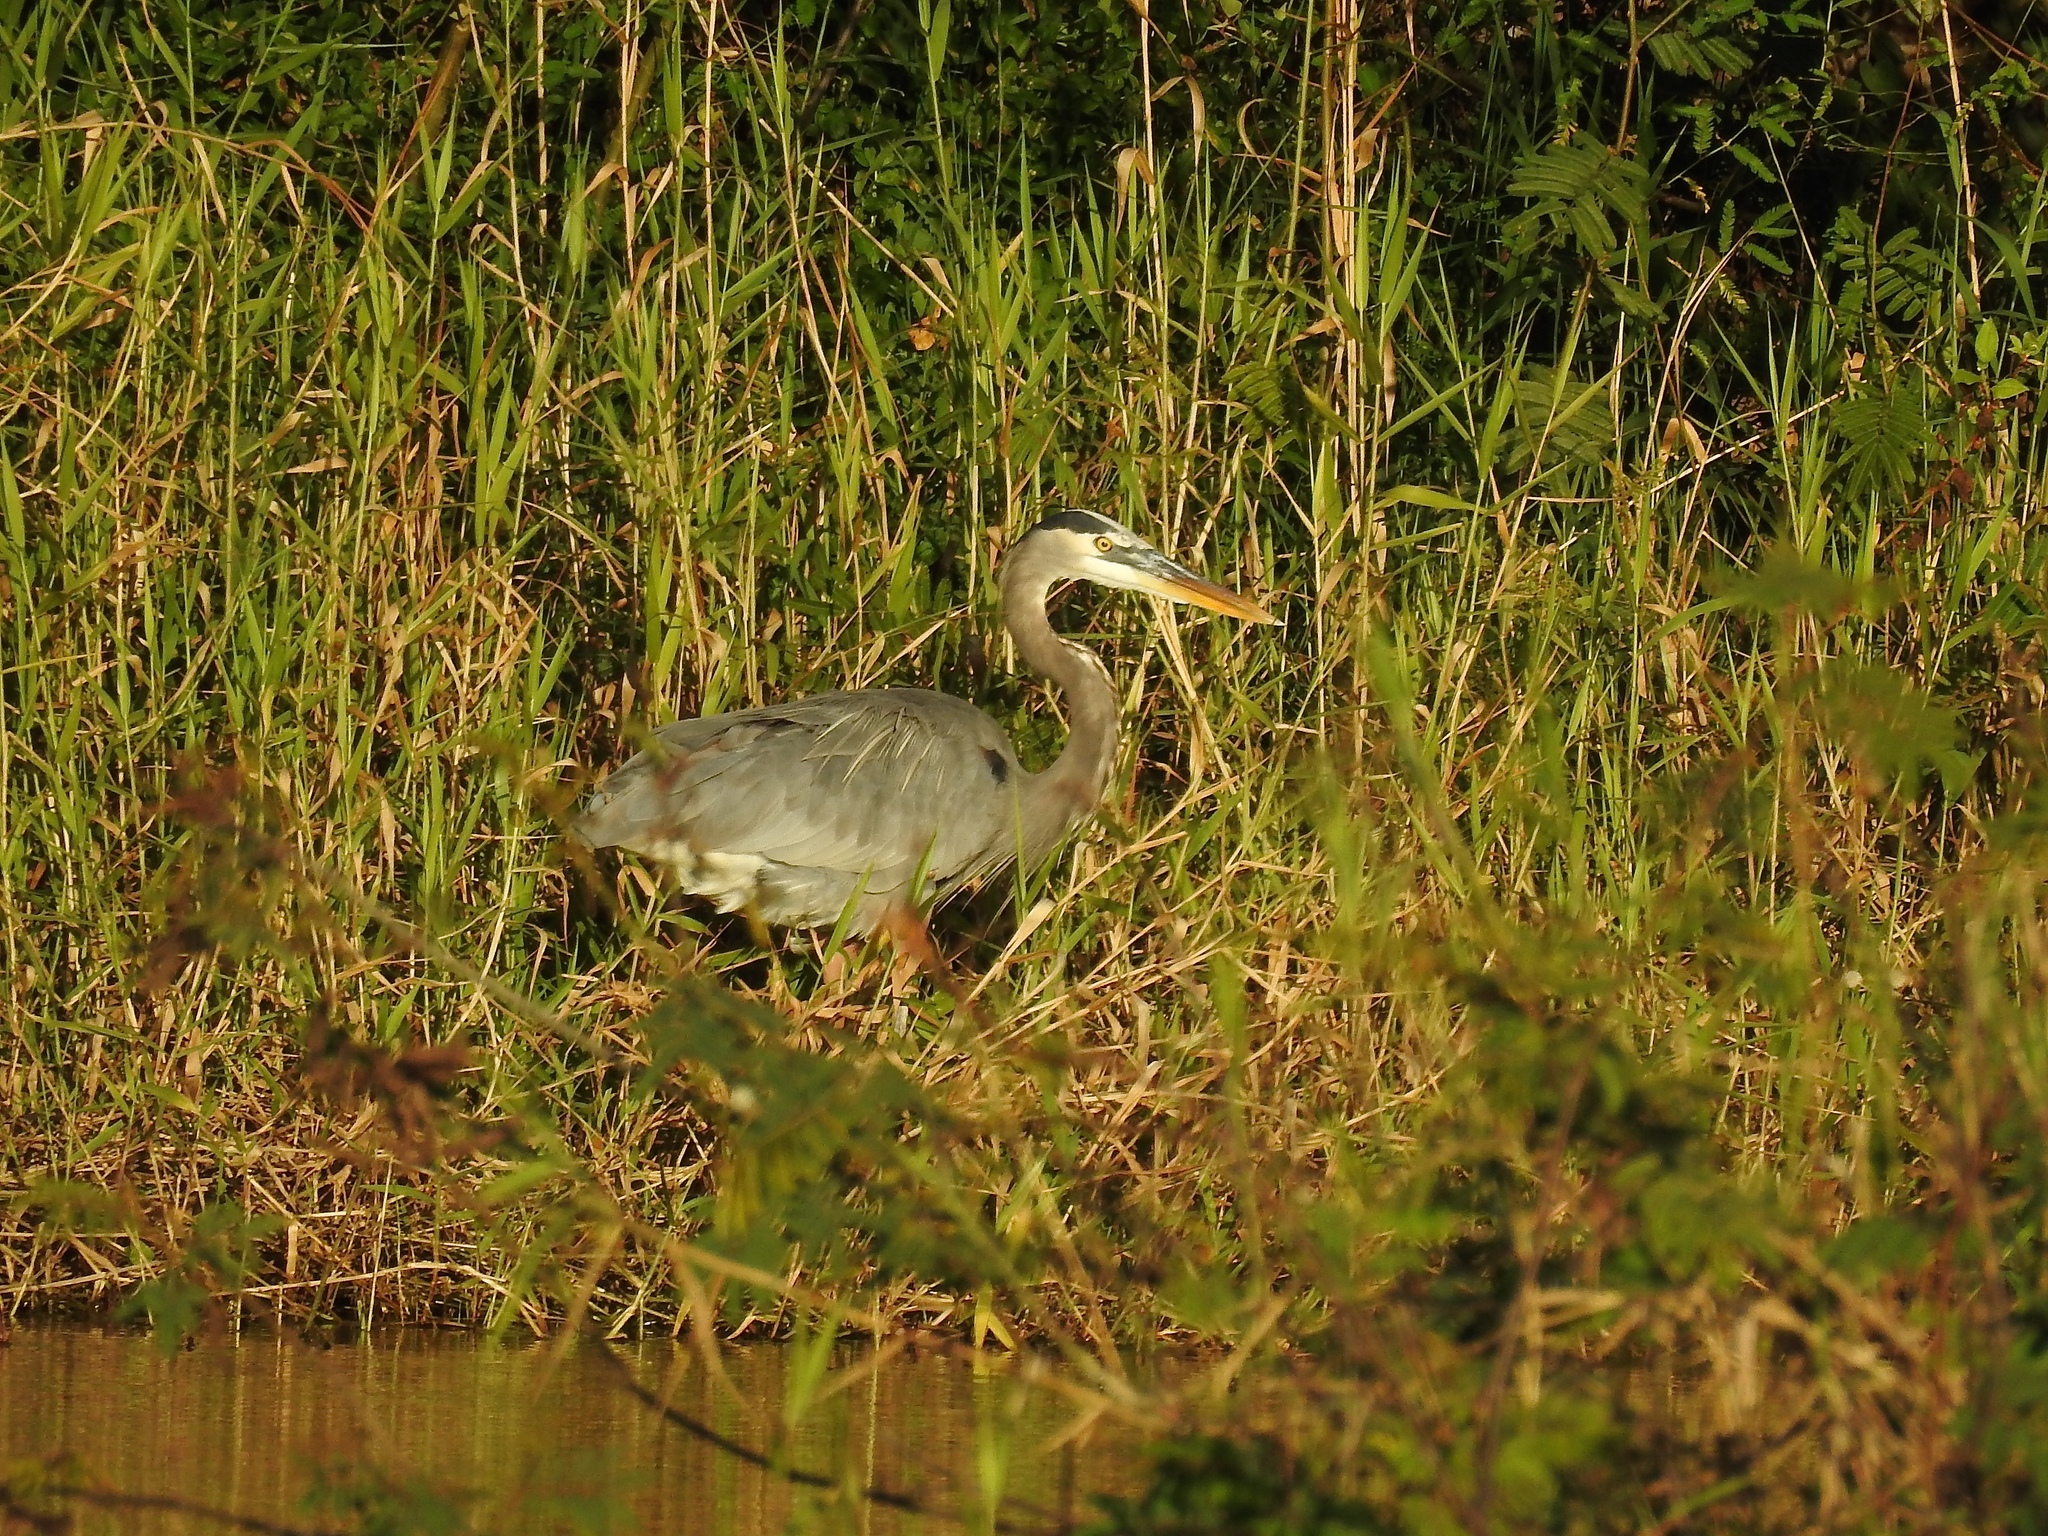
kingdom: Animalia
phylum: Chordata
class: Aves
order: Pelecaniformes
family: Ardeidae
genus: Ardea
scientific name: Ardea herodias
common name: Great blue heron
